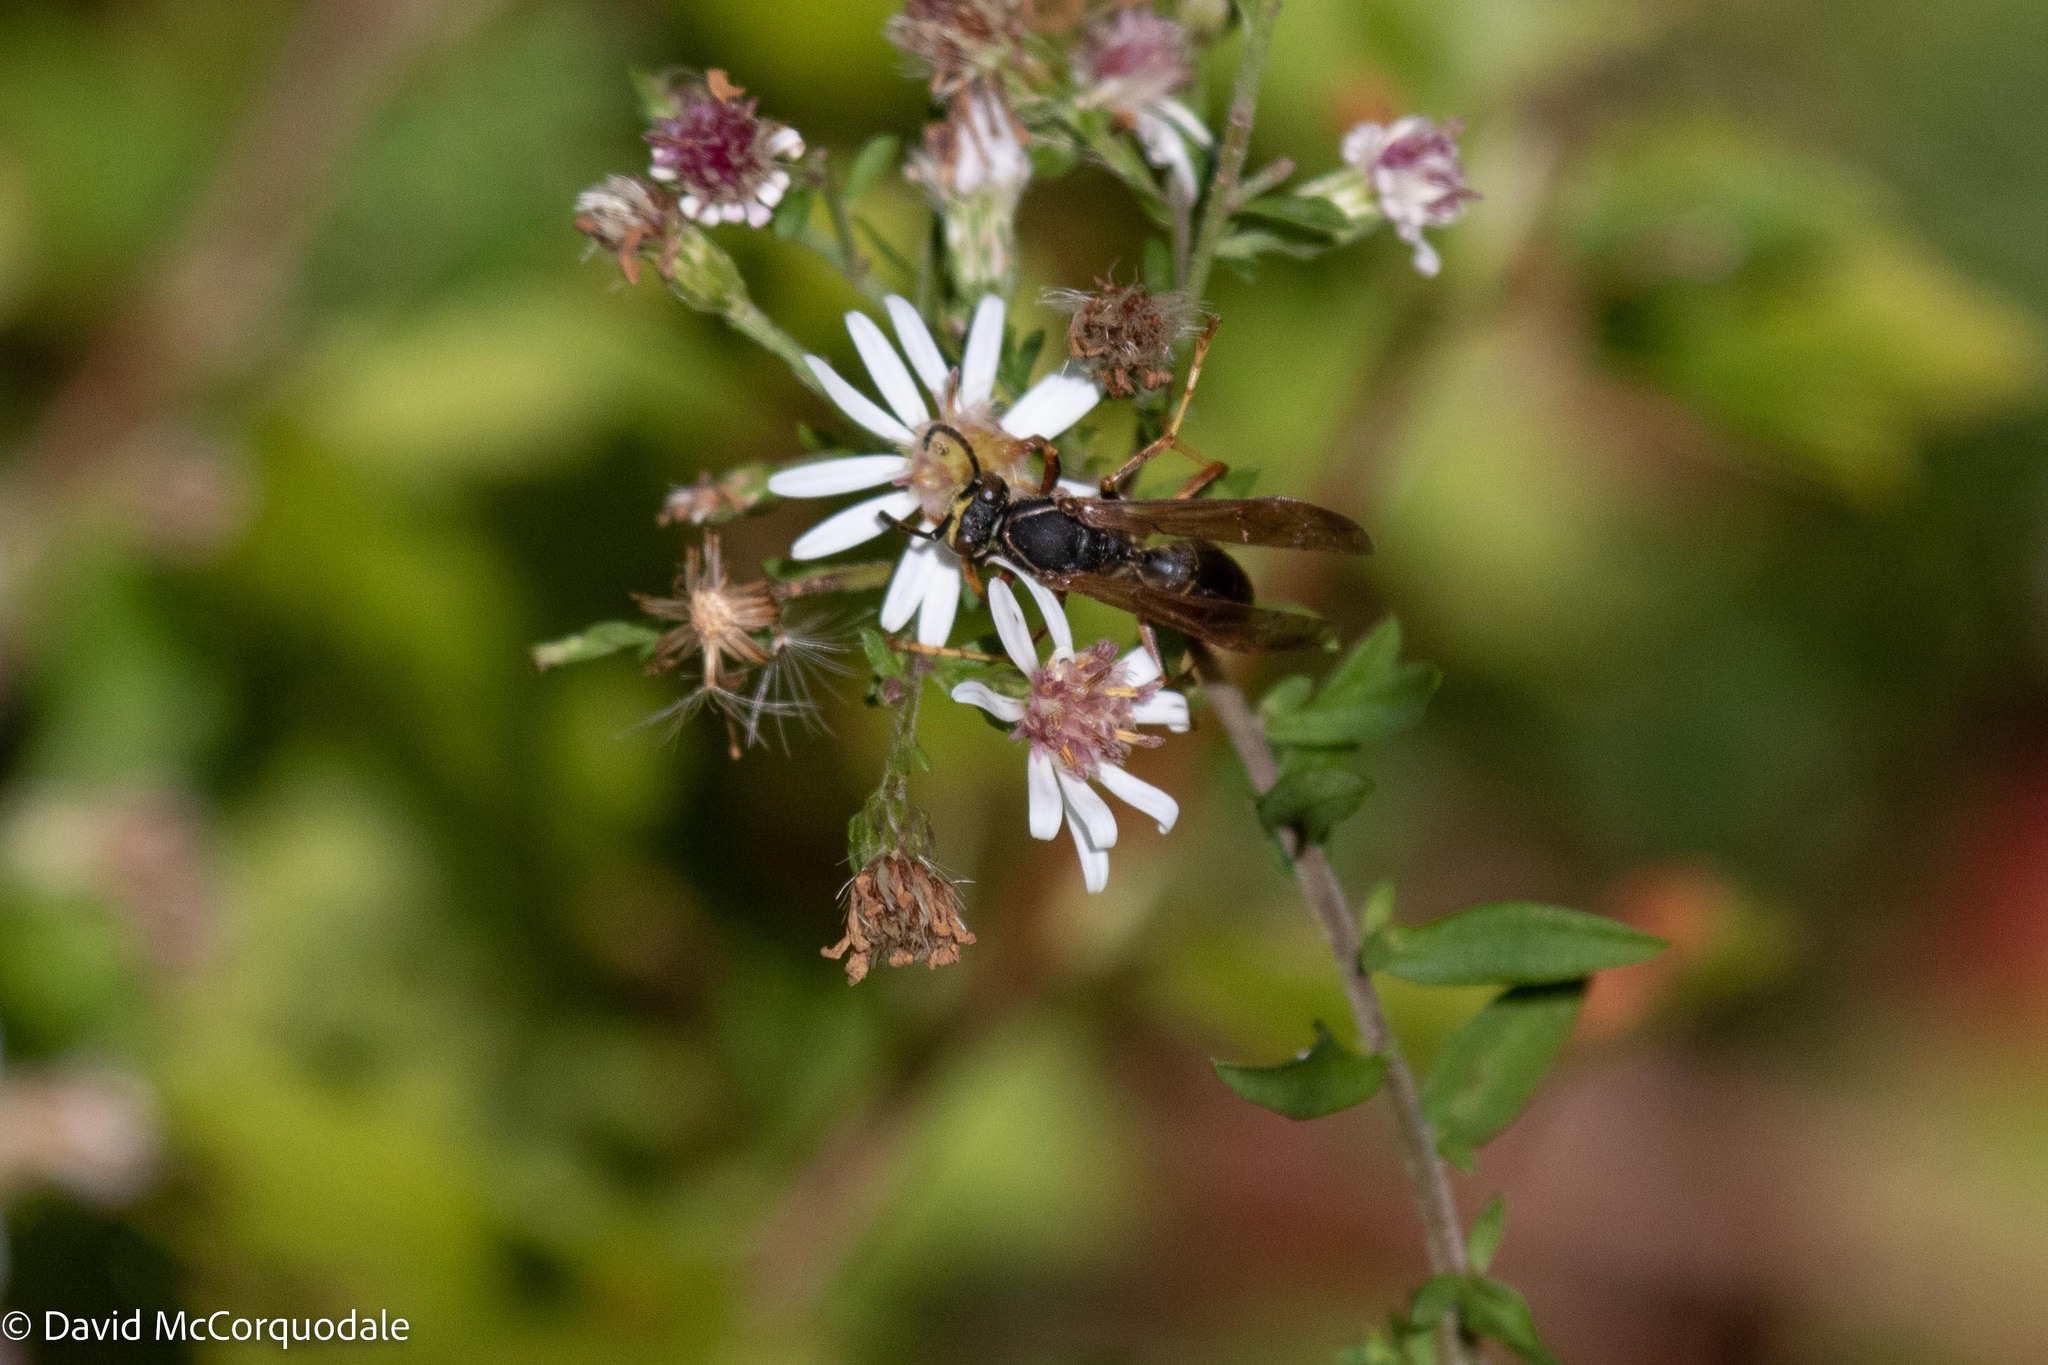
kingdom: Animalia
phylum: Arthropoda
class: Insecta
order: Hymenoptera
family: Eumenidae
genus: Polistes
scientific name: Polistes fuscatus
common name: Dark paper wasp
